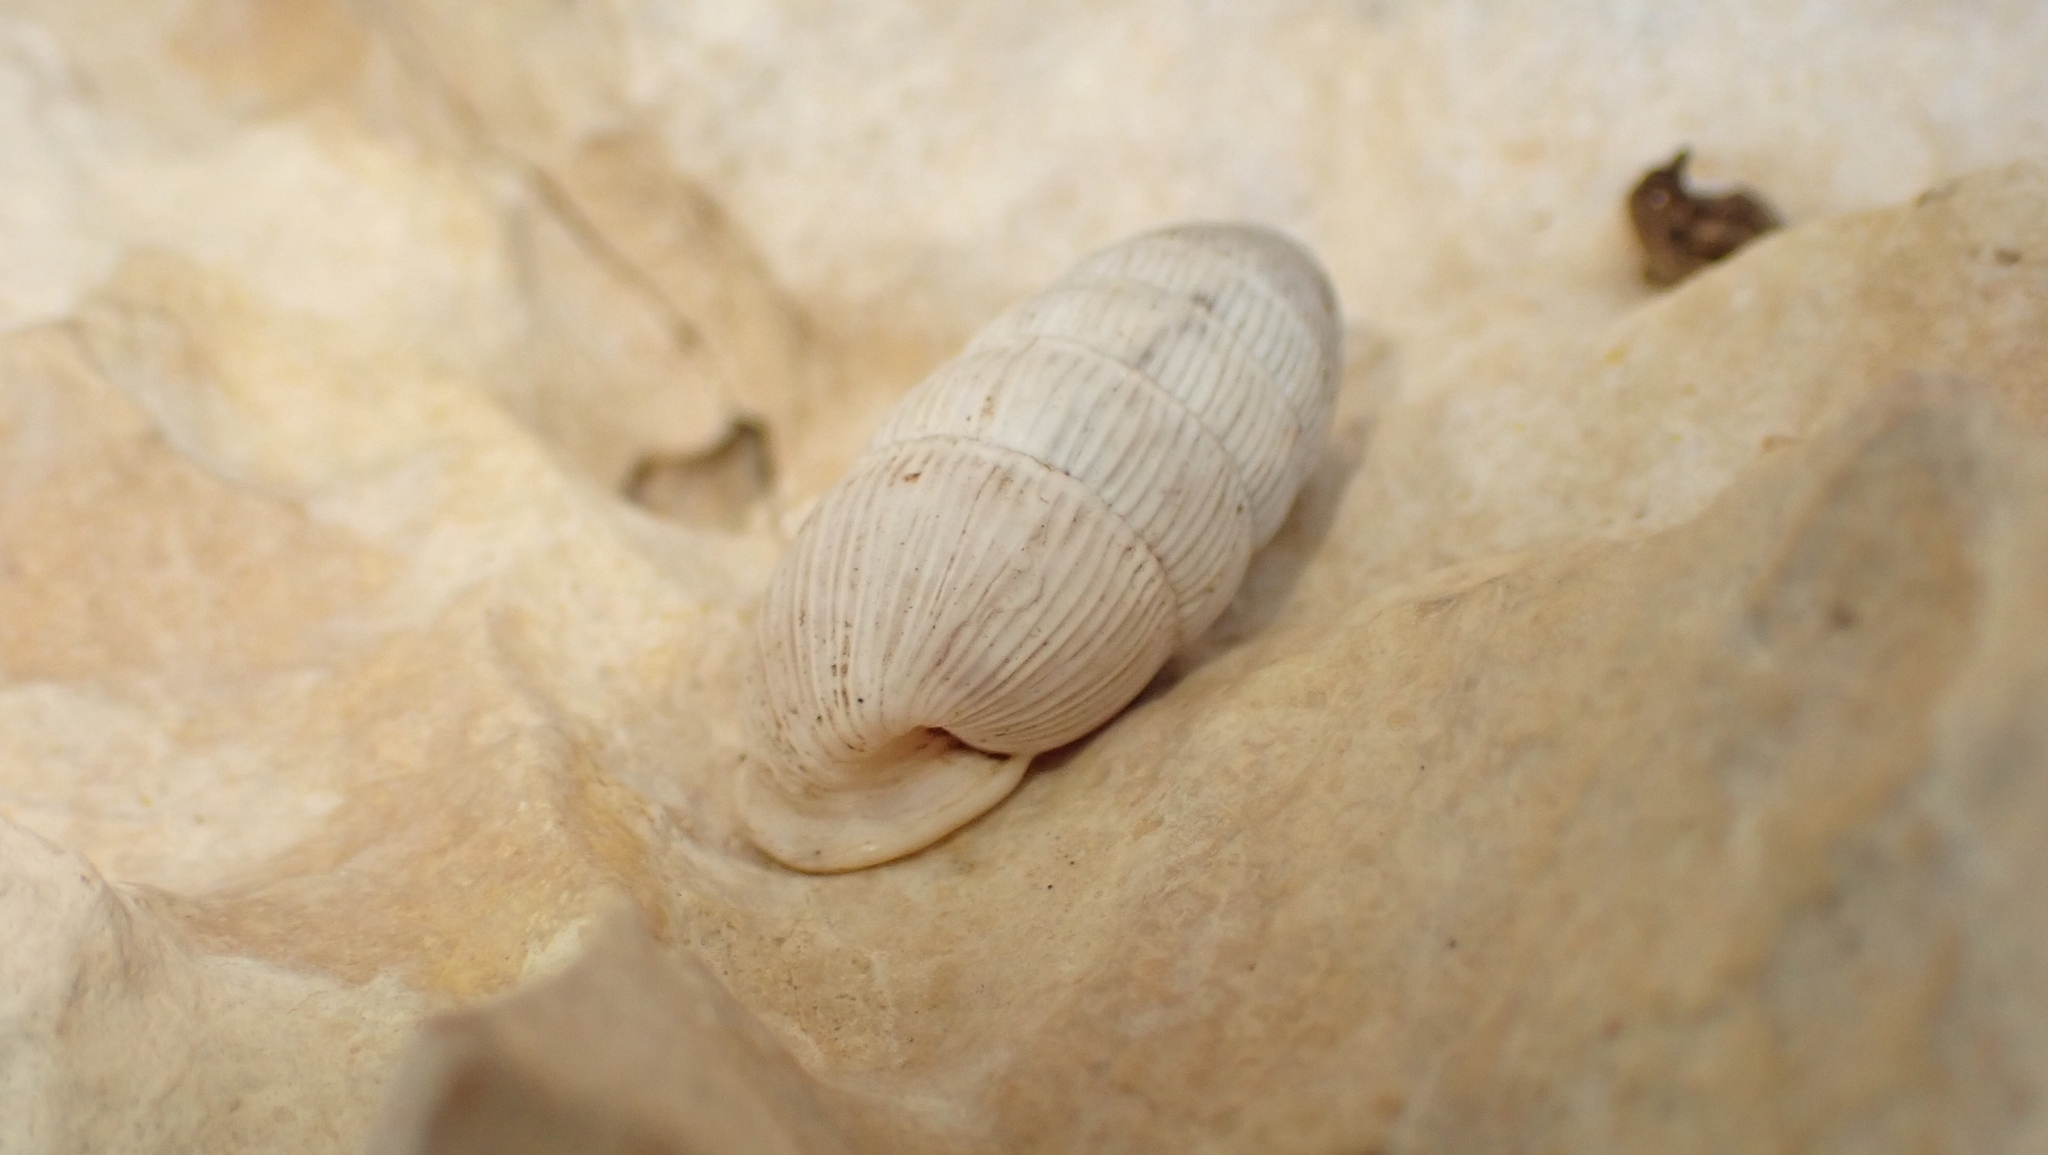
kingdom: Animalia
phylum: Mollusca
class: Gastropoda
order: Stylommatophora
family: Cerionidae
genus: Cerion
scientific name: Cerion striatellum
